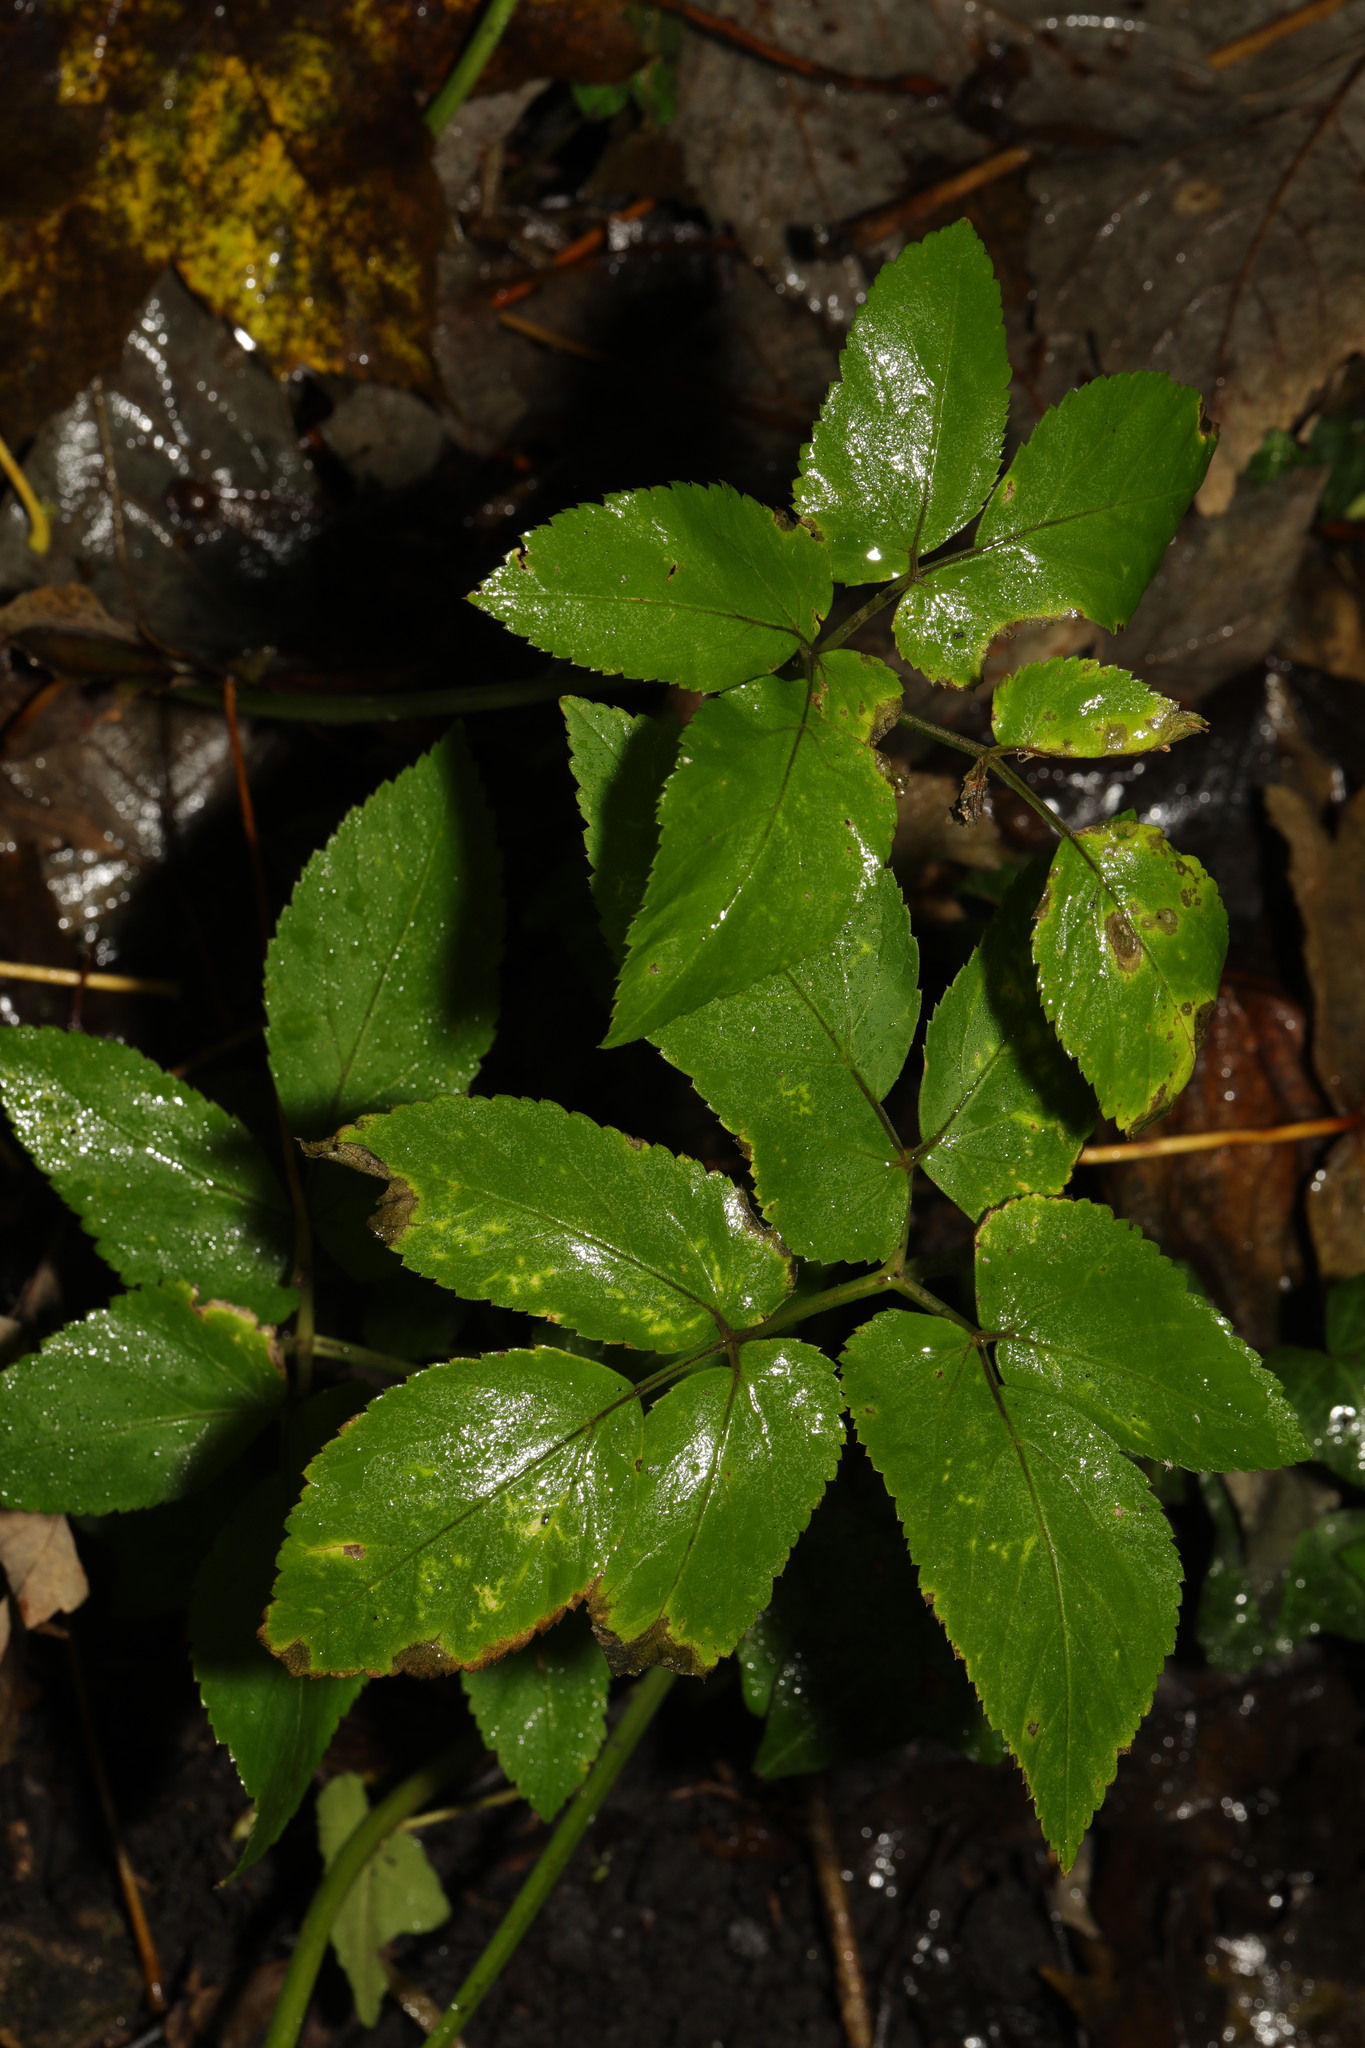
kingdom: Plantae
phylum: Tracheophyta
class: Magnoliopsida
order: Apiales
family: Apiaceae
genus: Aegopodium
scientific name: Aegopodium podagraria
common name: Ground-elder
